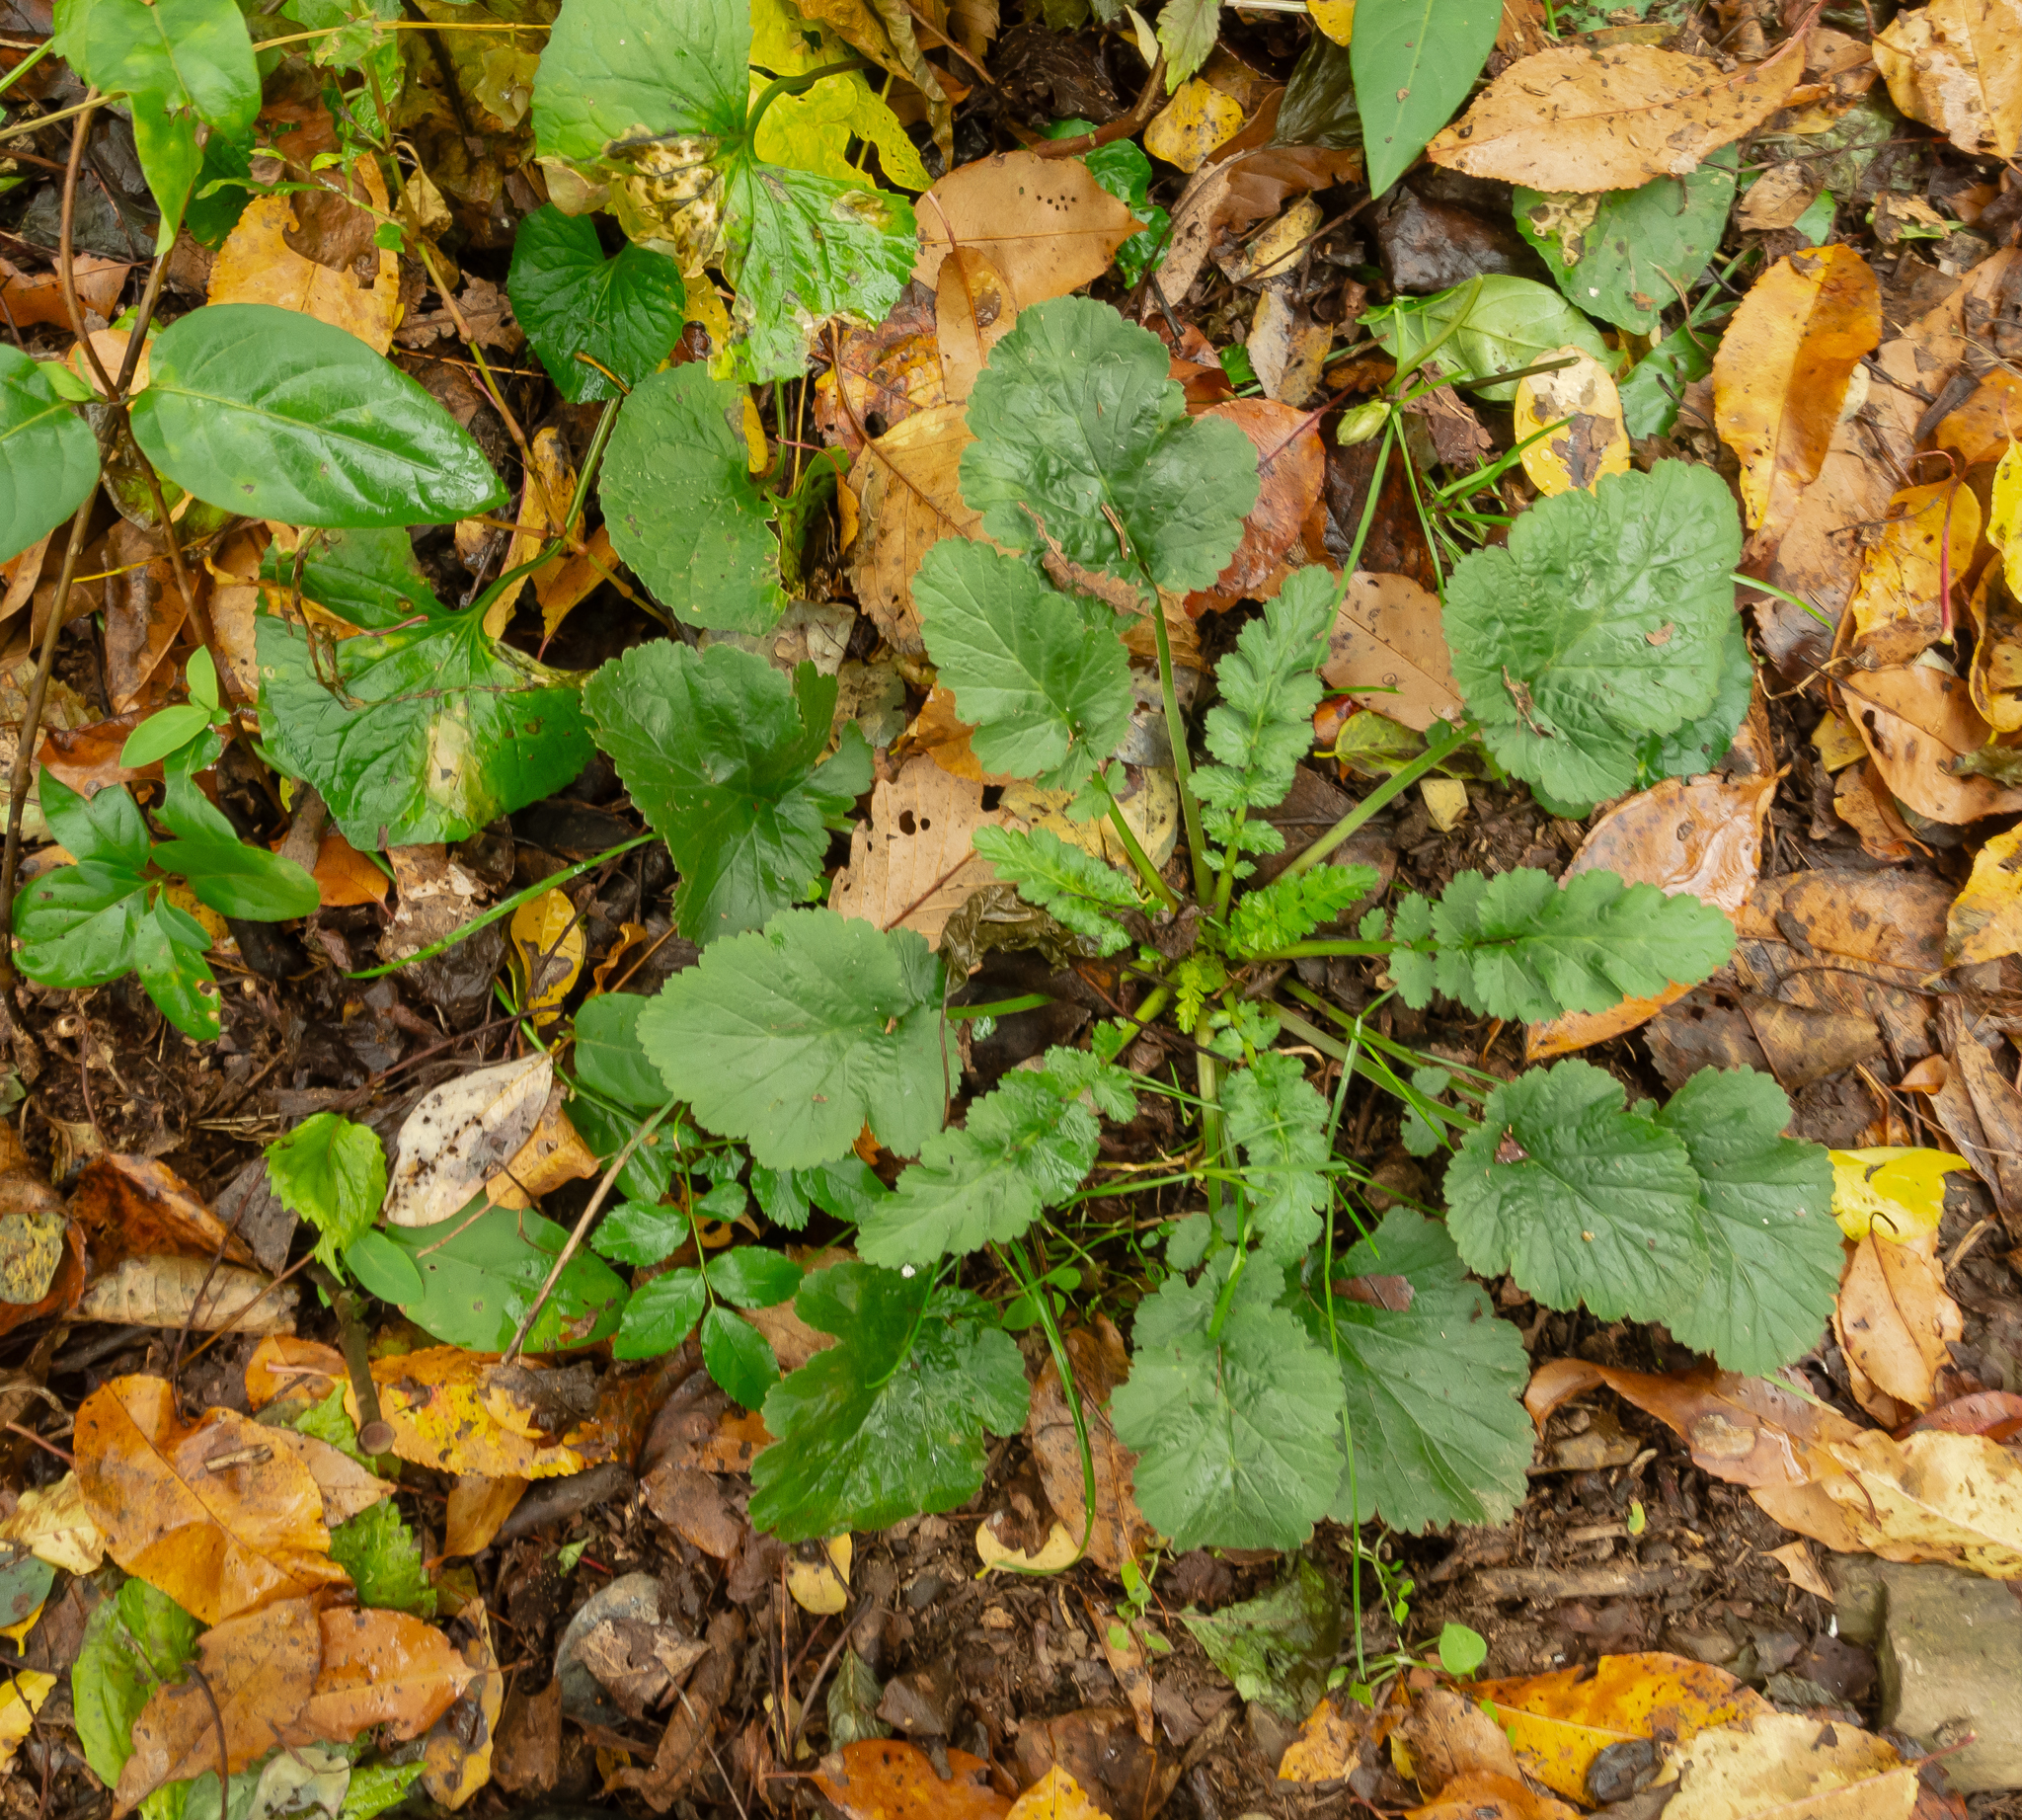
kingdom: Plantae
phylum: Tracheophyta
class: Magnoliopsida
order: Rosales
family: Rosaceae
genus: Geum
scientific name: Geum canadense
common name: White avens
